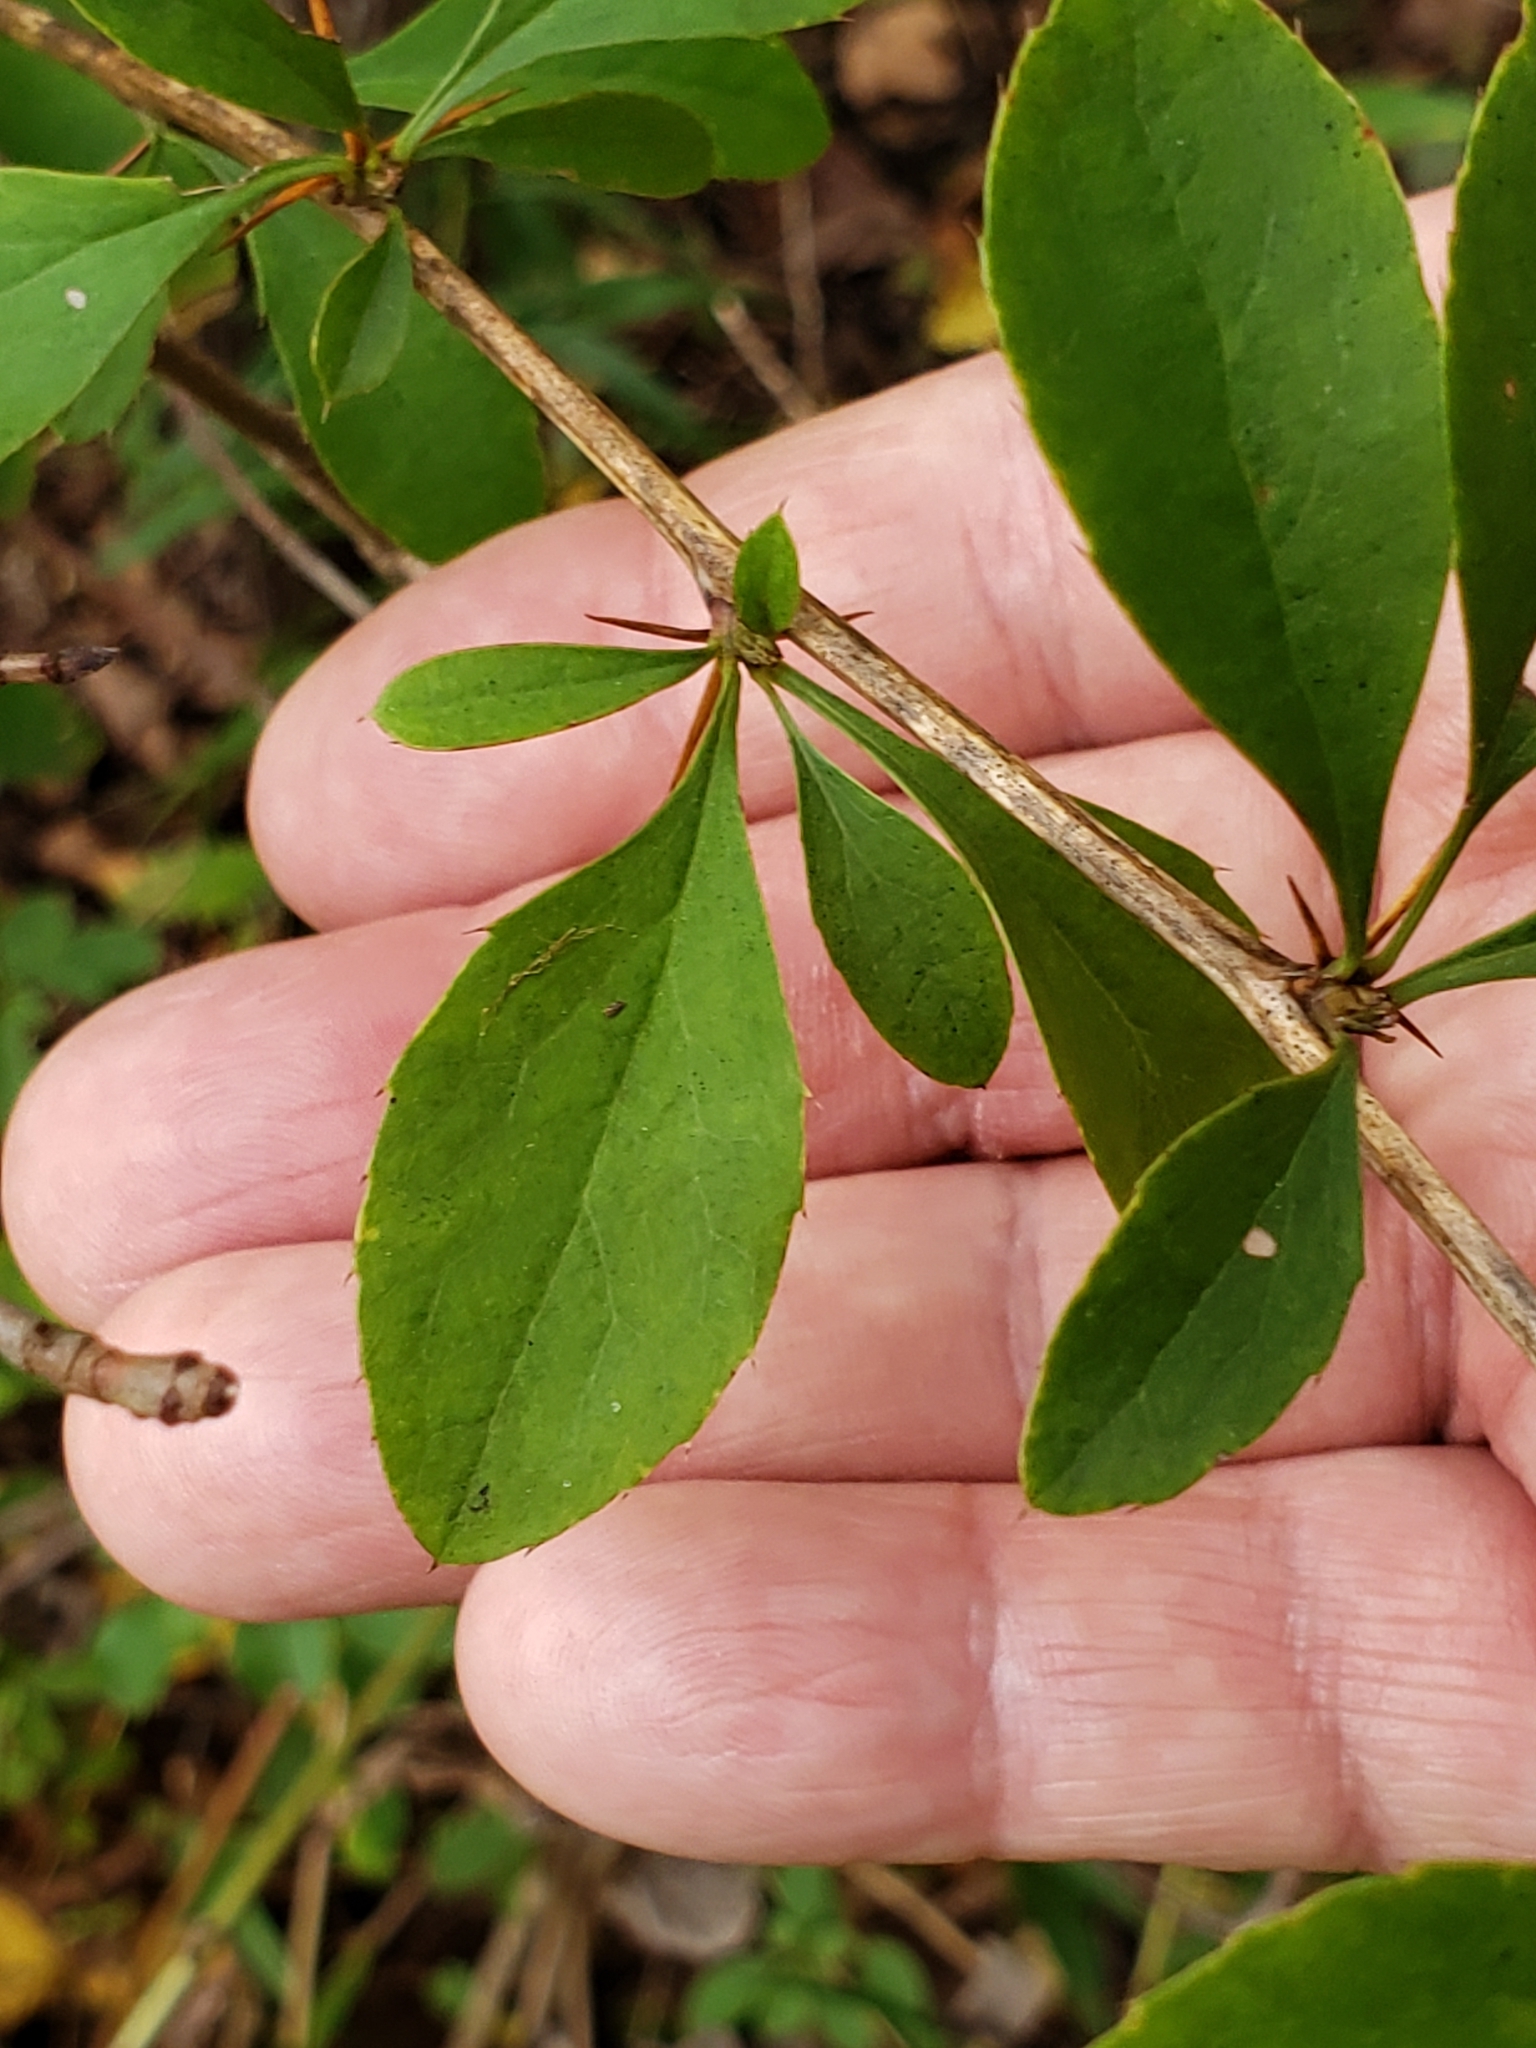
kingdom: Plantae
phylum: Tracheophyta
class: Magnoliopsida
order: Ranunculales
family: Berberidaceae
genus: Berberis
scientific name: Berberis vulgaris
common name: Barberry
